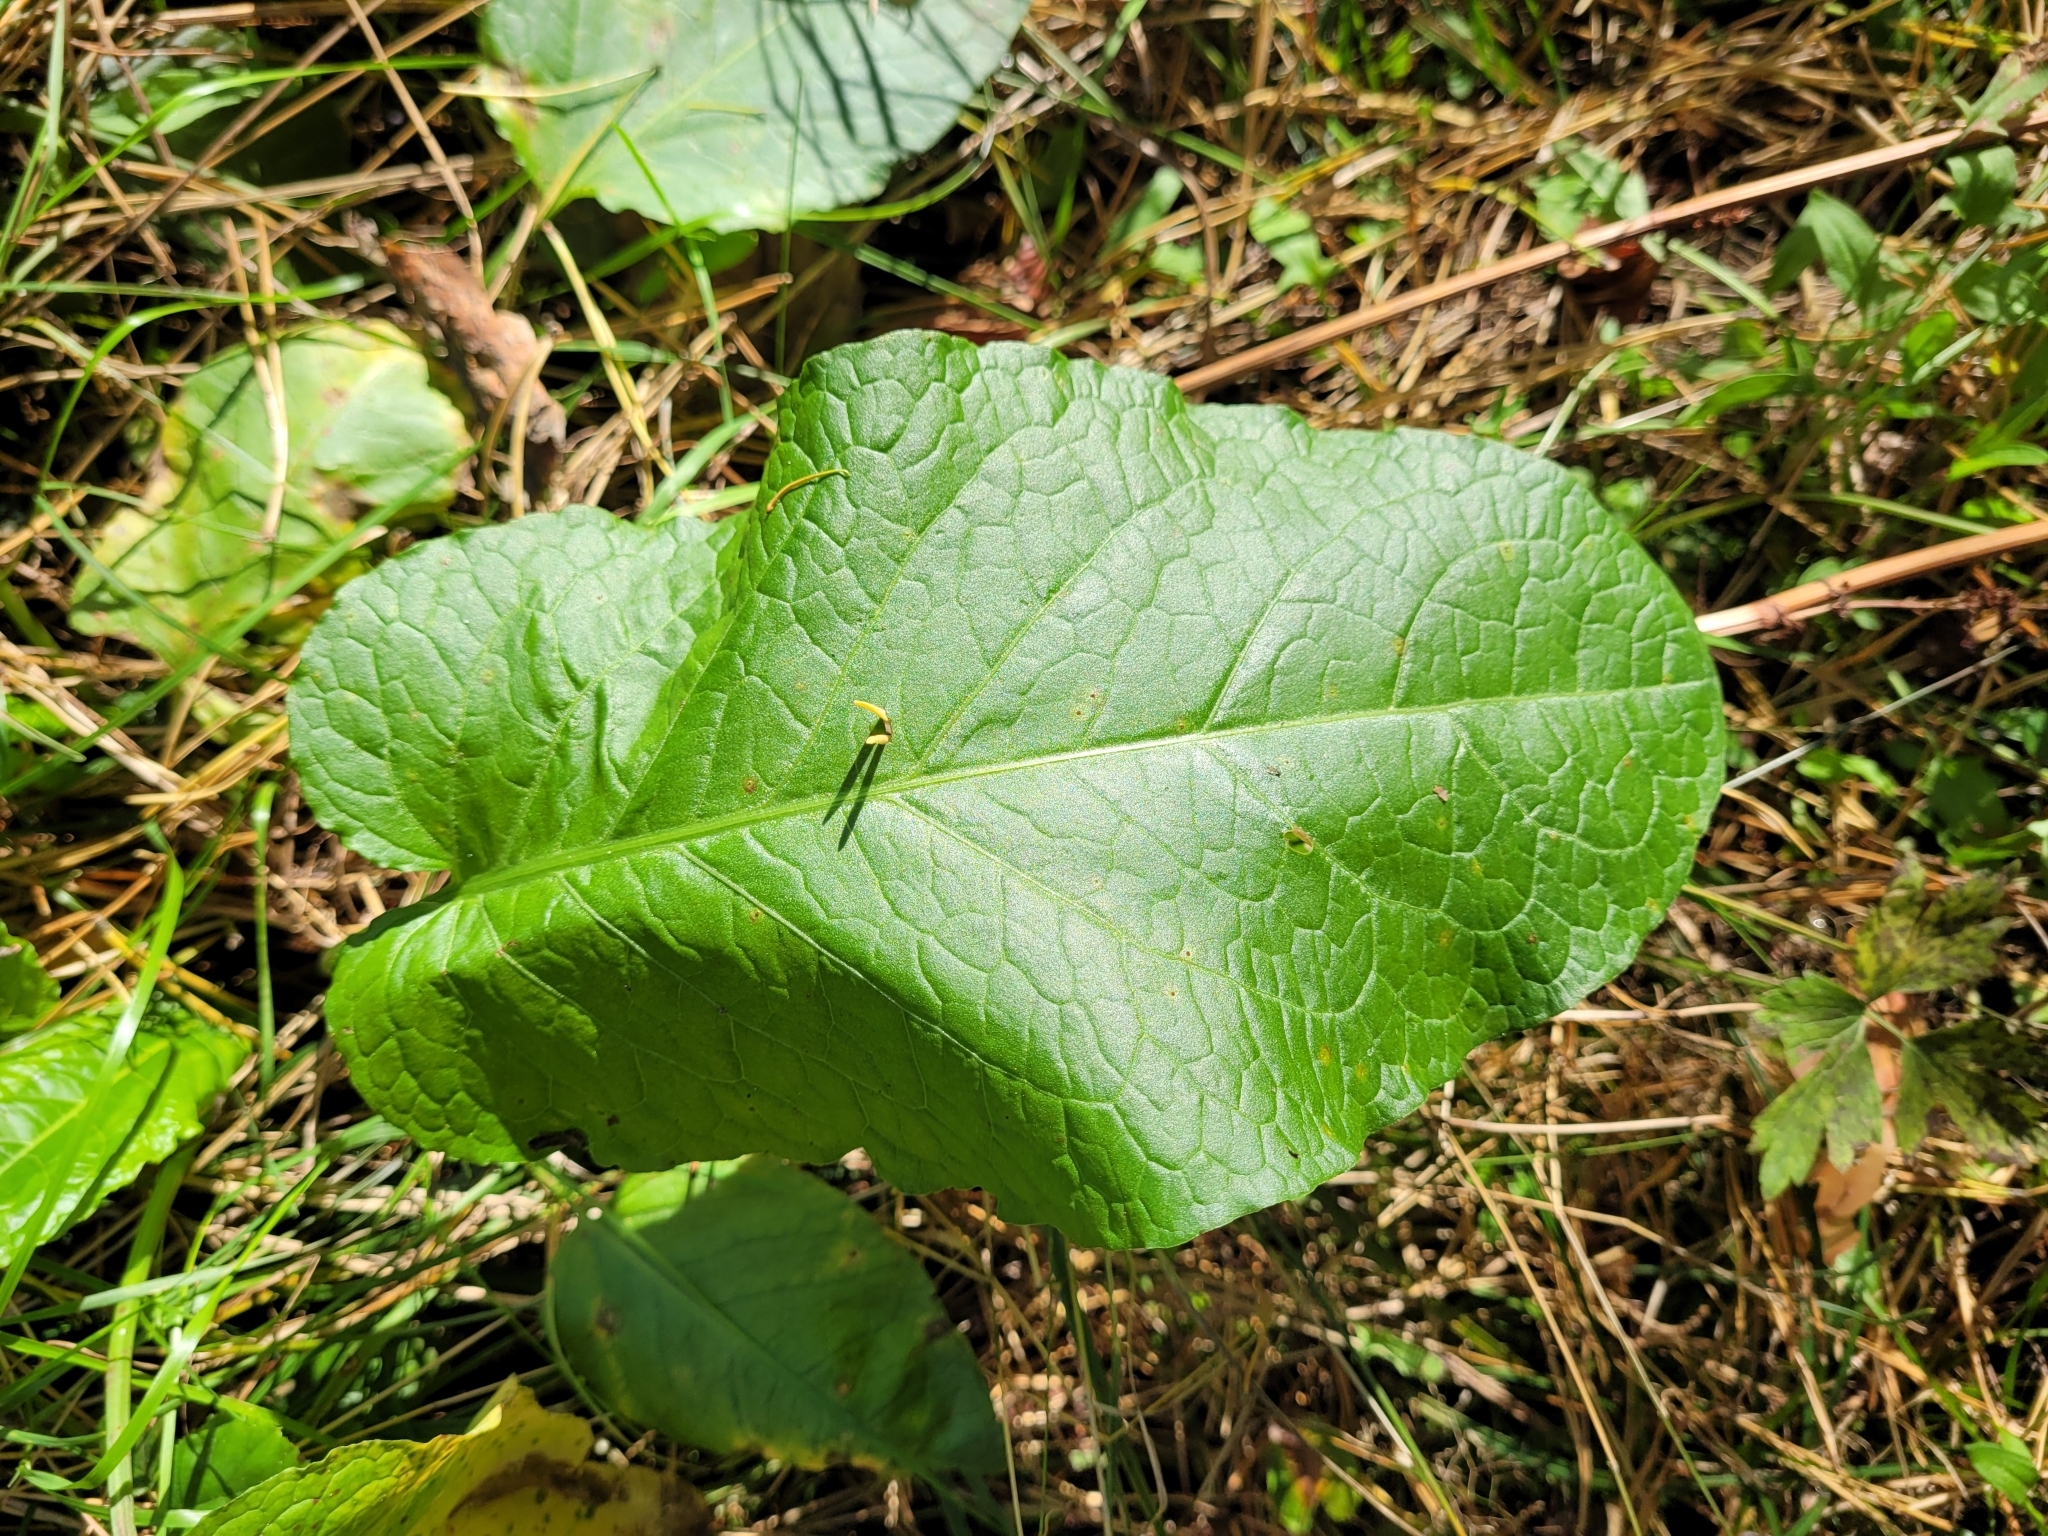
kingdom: Plantae
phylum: Tracheophyta
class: Magnoliopsida
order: Caryophyllales
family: Polygonaceae
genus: Rumex
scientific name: Rumex obtusifolius
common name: Bitter dock
